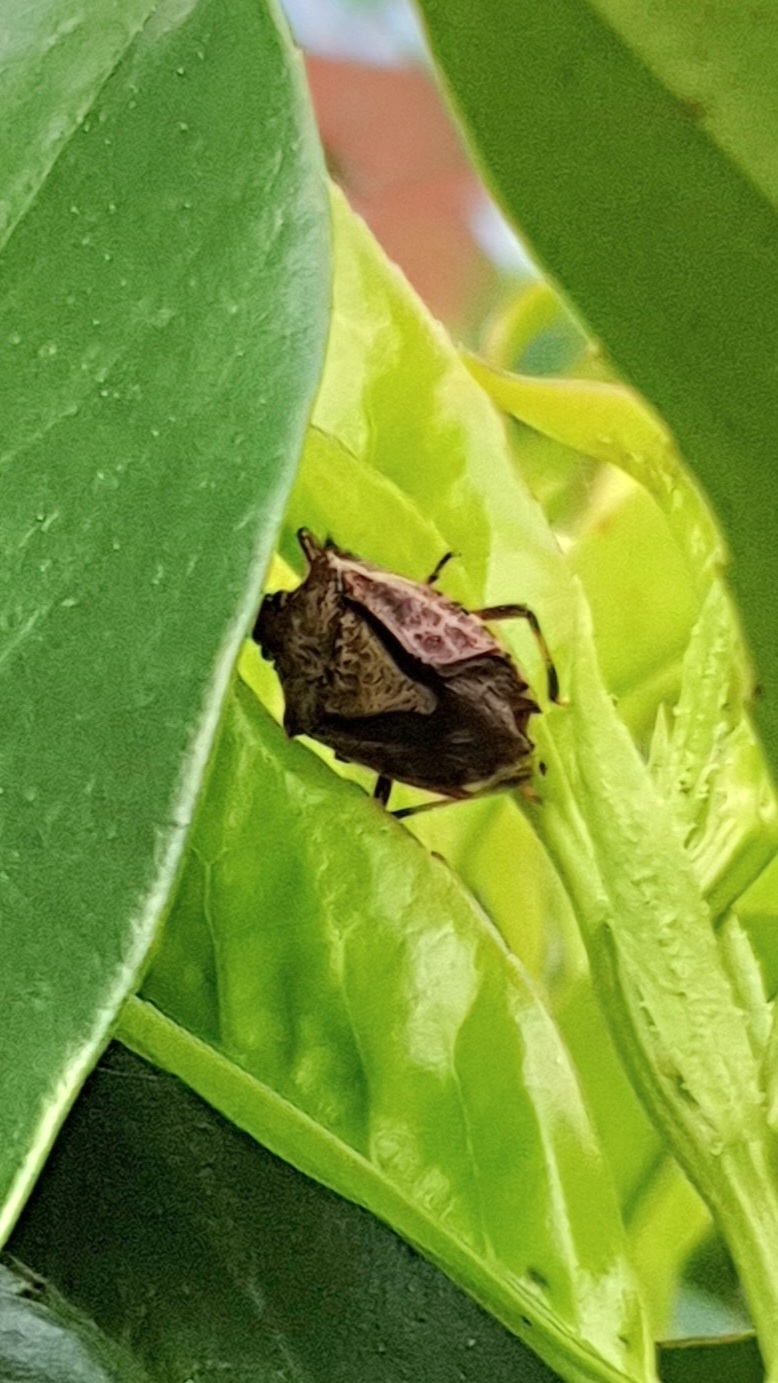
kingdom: Animalia
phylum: Arthropoda
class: Insecta
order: Hemiptera
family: Pentatomidae
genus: Halyomorpha
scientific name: Halyomorpha halys
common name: Brown marmorated stink bug
